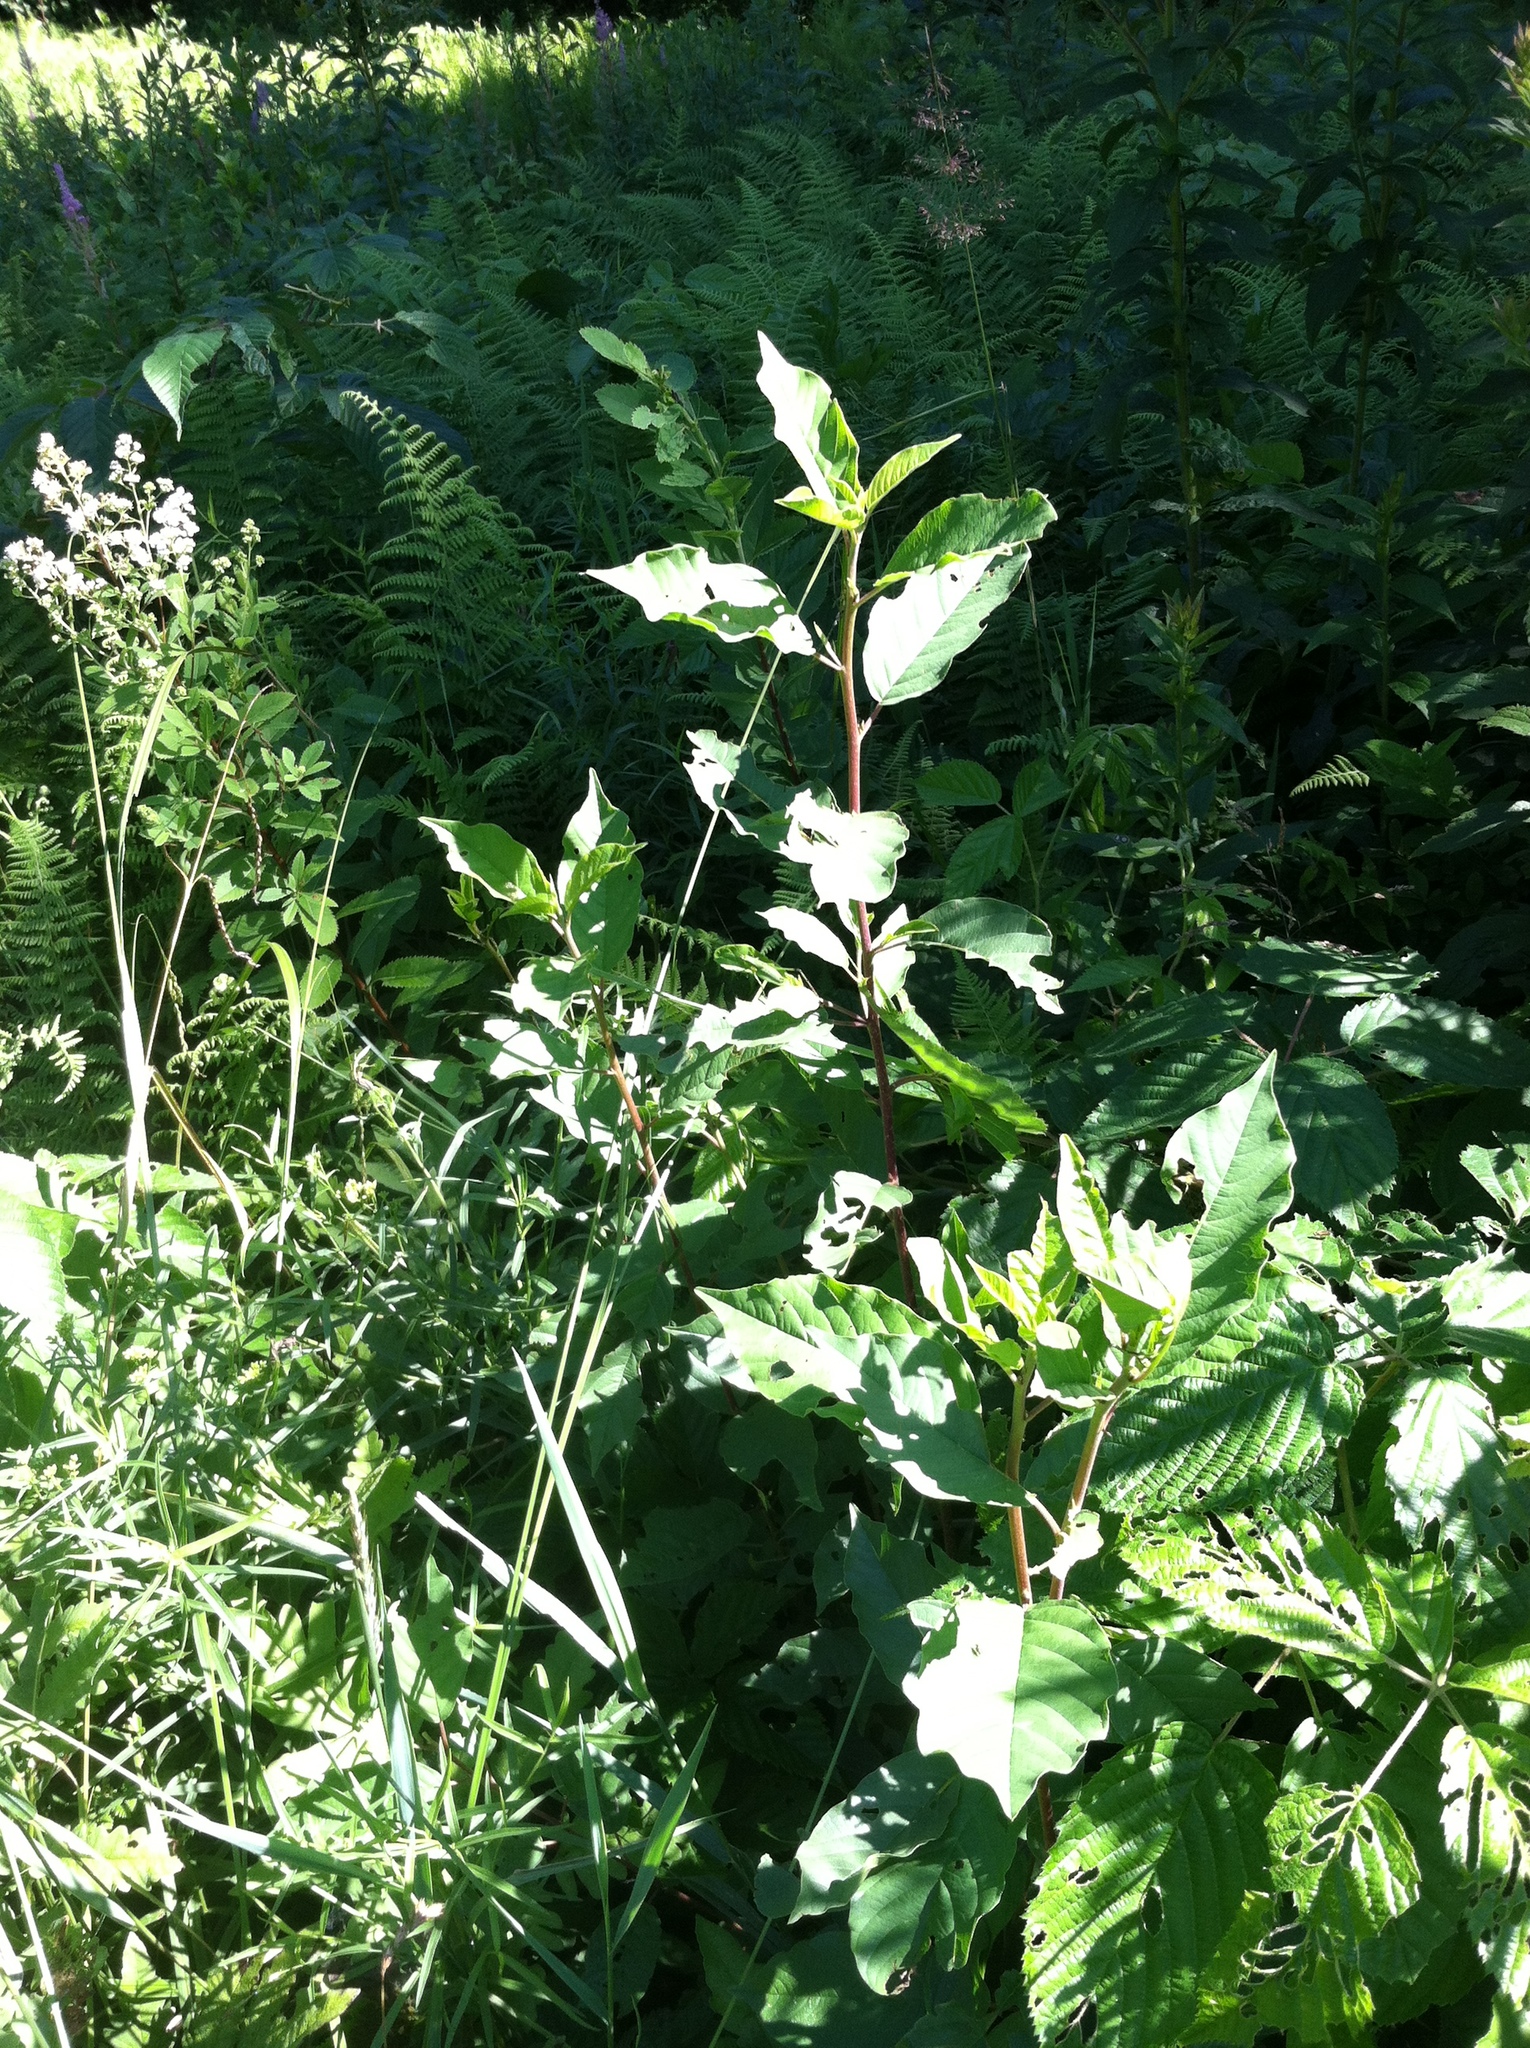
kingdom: Plantae
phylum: Tracheophyta
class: Magnoliopsida
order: Rosales
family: Rhamnaceae
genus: Frangula
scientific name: Frangula alnus
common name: Alder buckthorn
